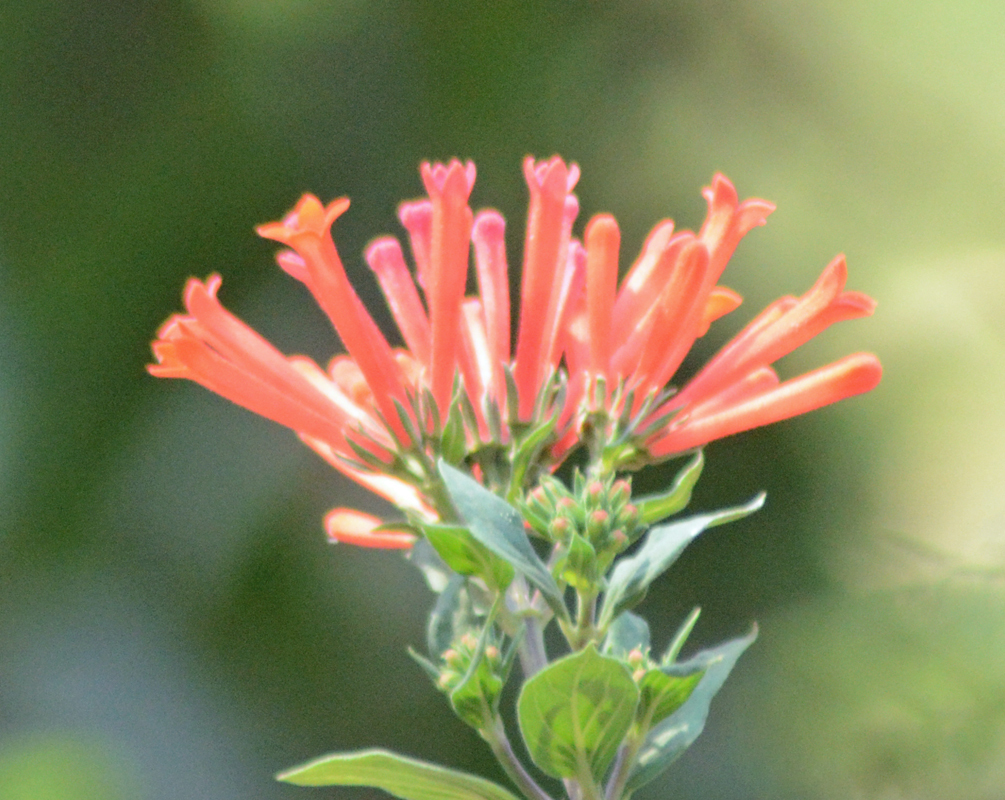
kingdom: Plantae
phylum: Tracheophyta
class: Magnoliopsida
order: Gentianales
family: Rubiaceae
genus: Bouvardia
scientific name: Bouvardia ternifolia
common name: Scarlet bouvardia
